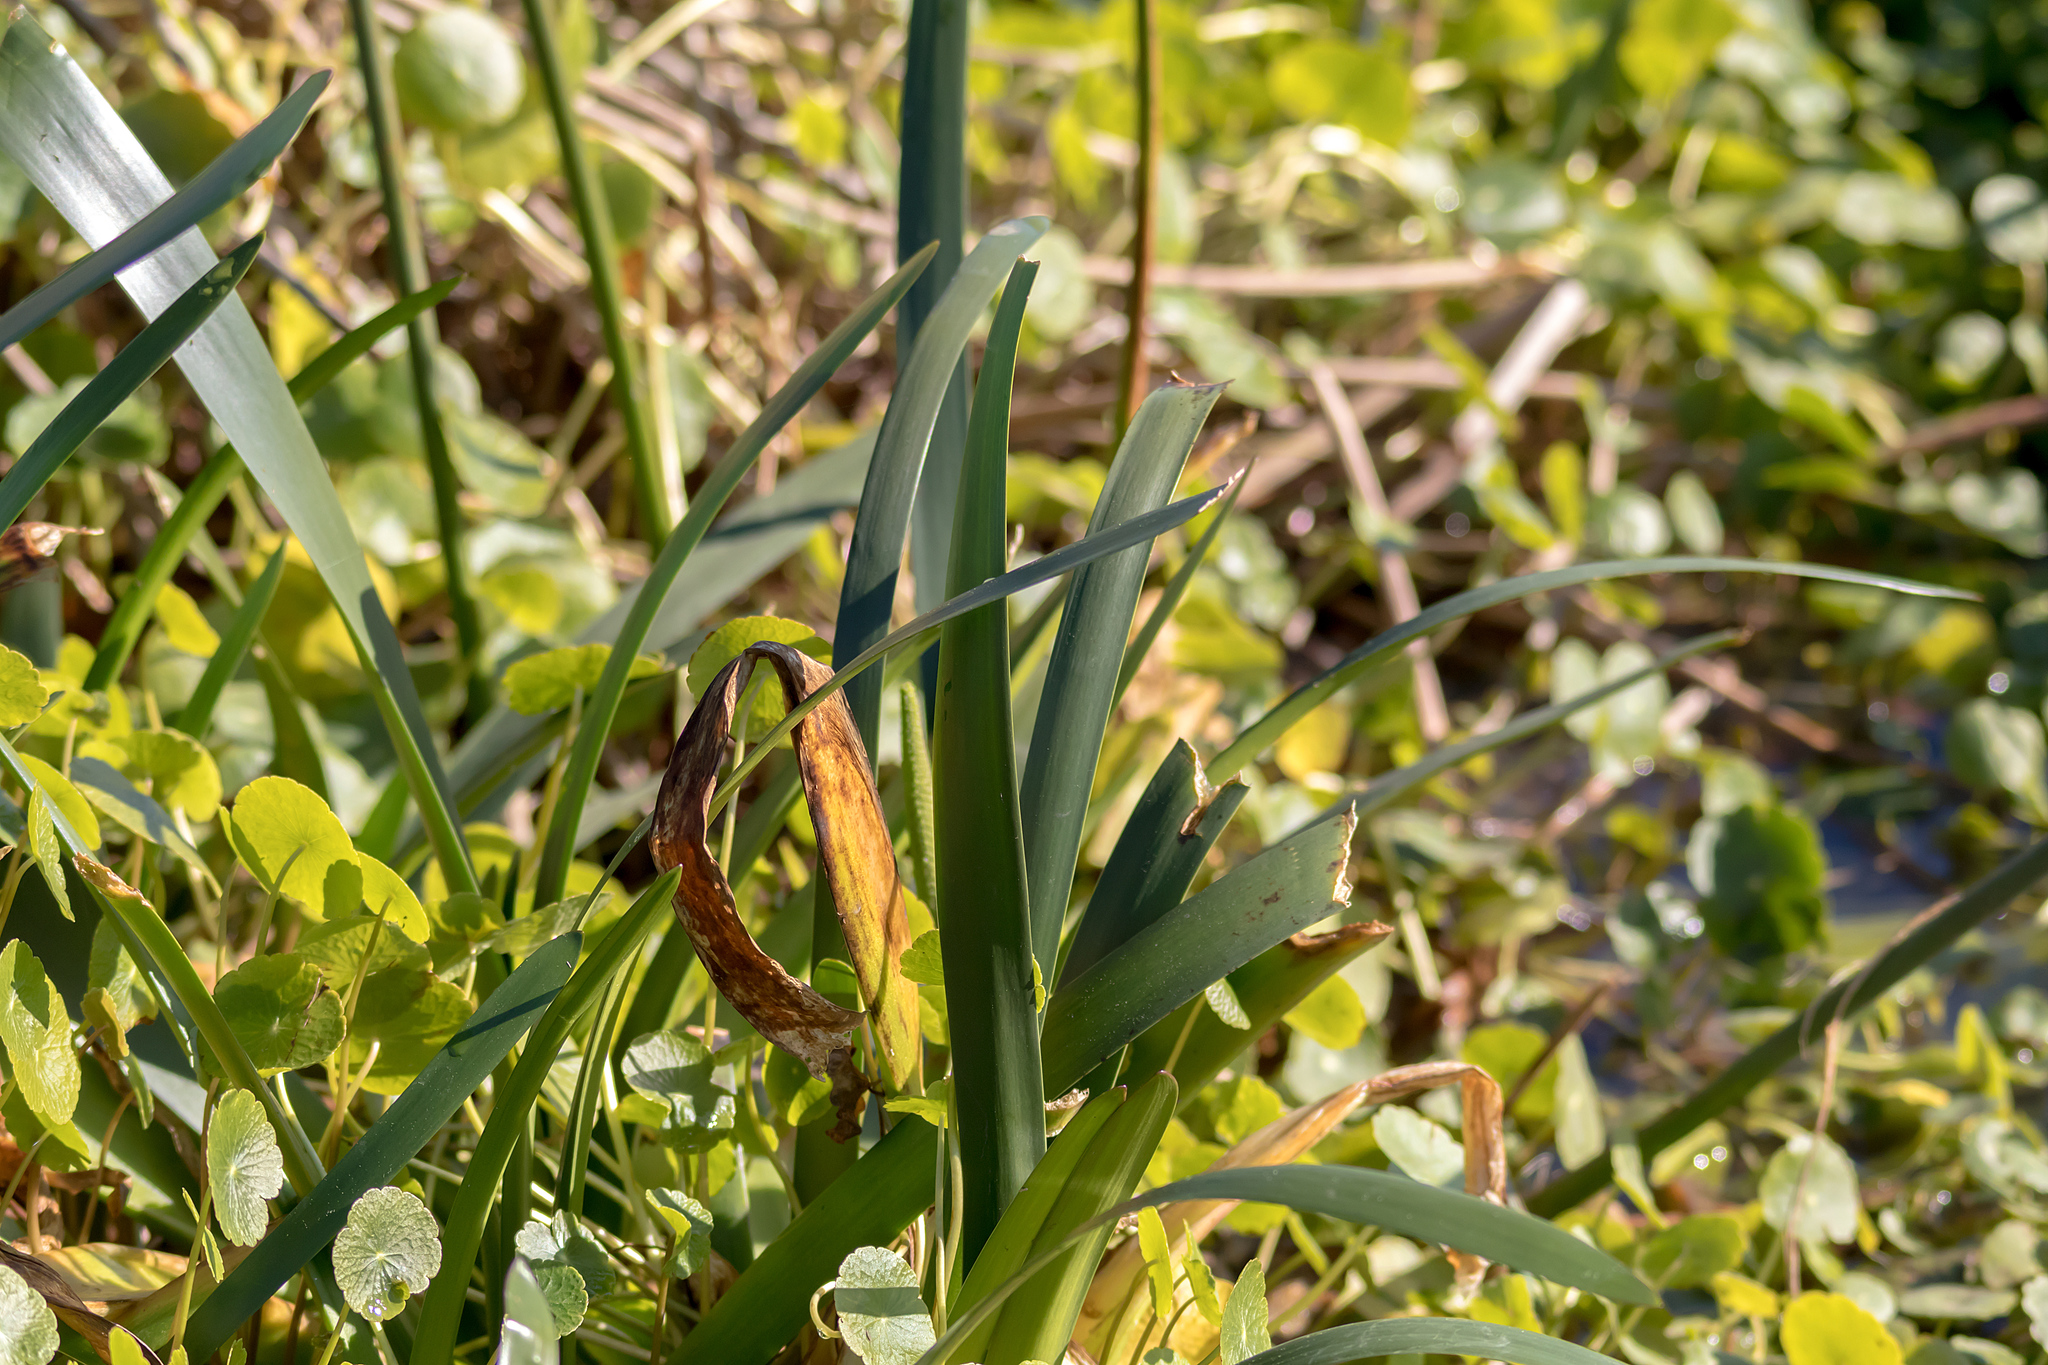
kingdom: Plantae
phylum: Tracheophyta
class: Liliopsida
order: Alismatales
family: Juncaginaceae
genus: Cycnogeton
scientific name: Cycnogeton procerum
